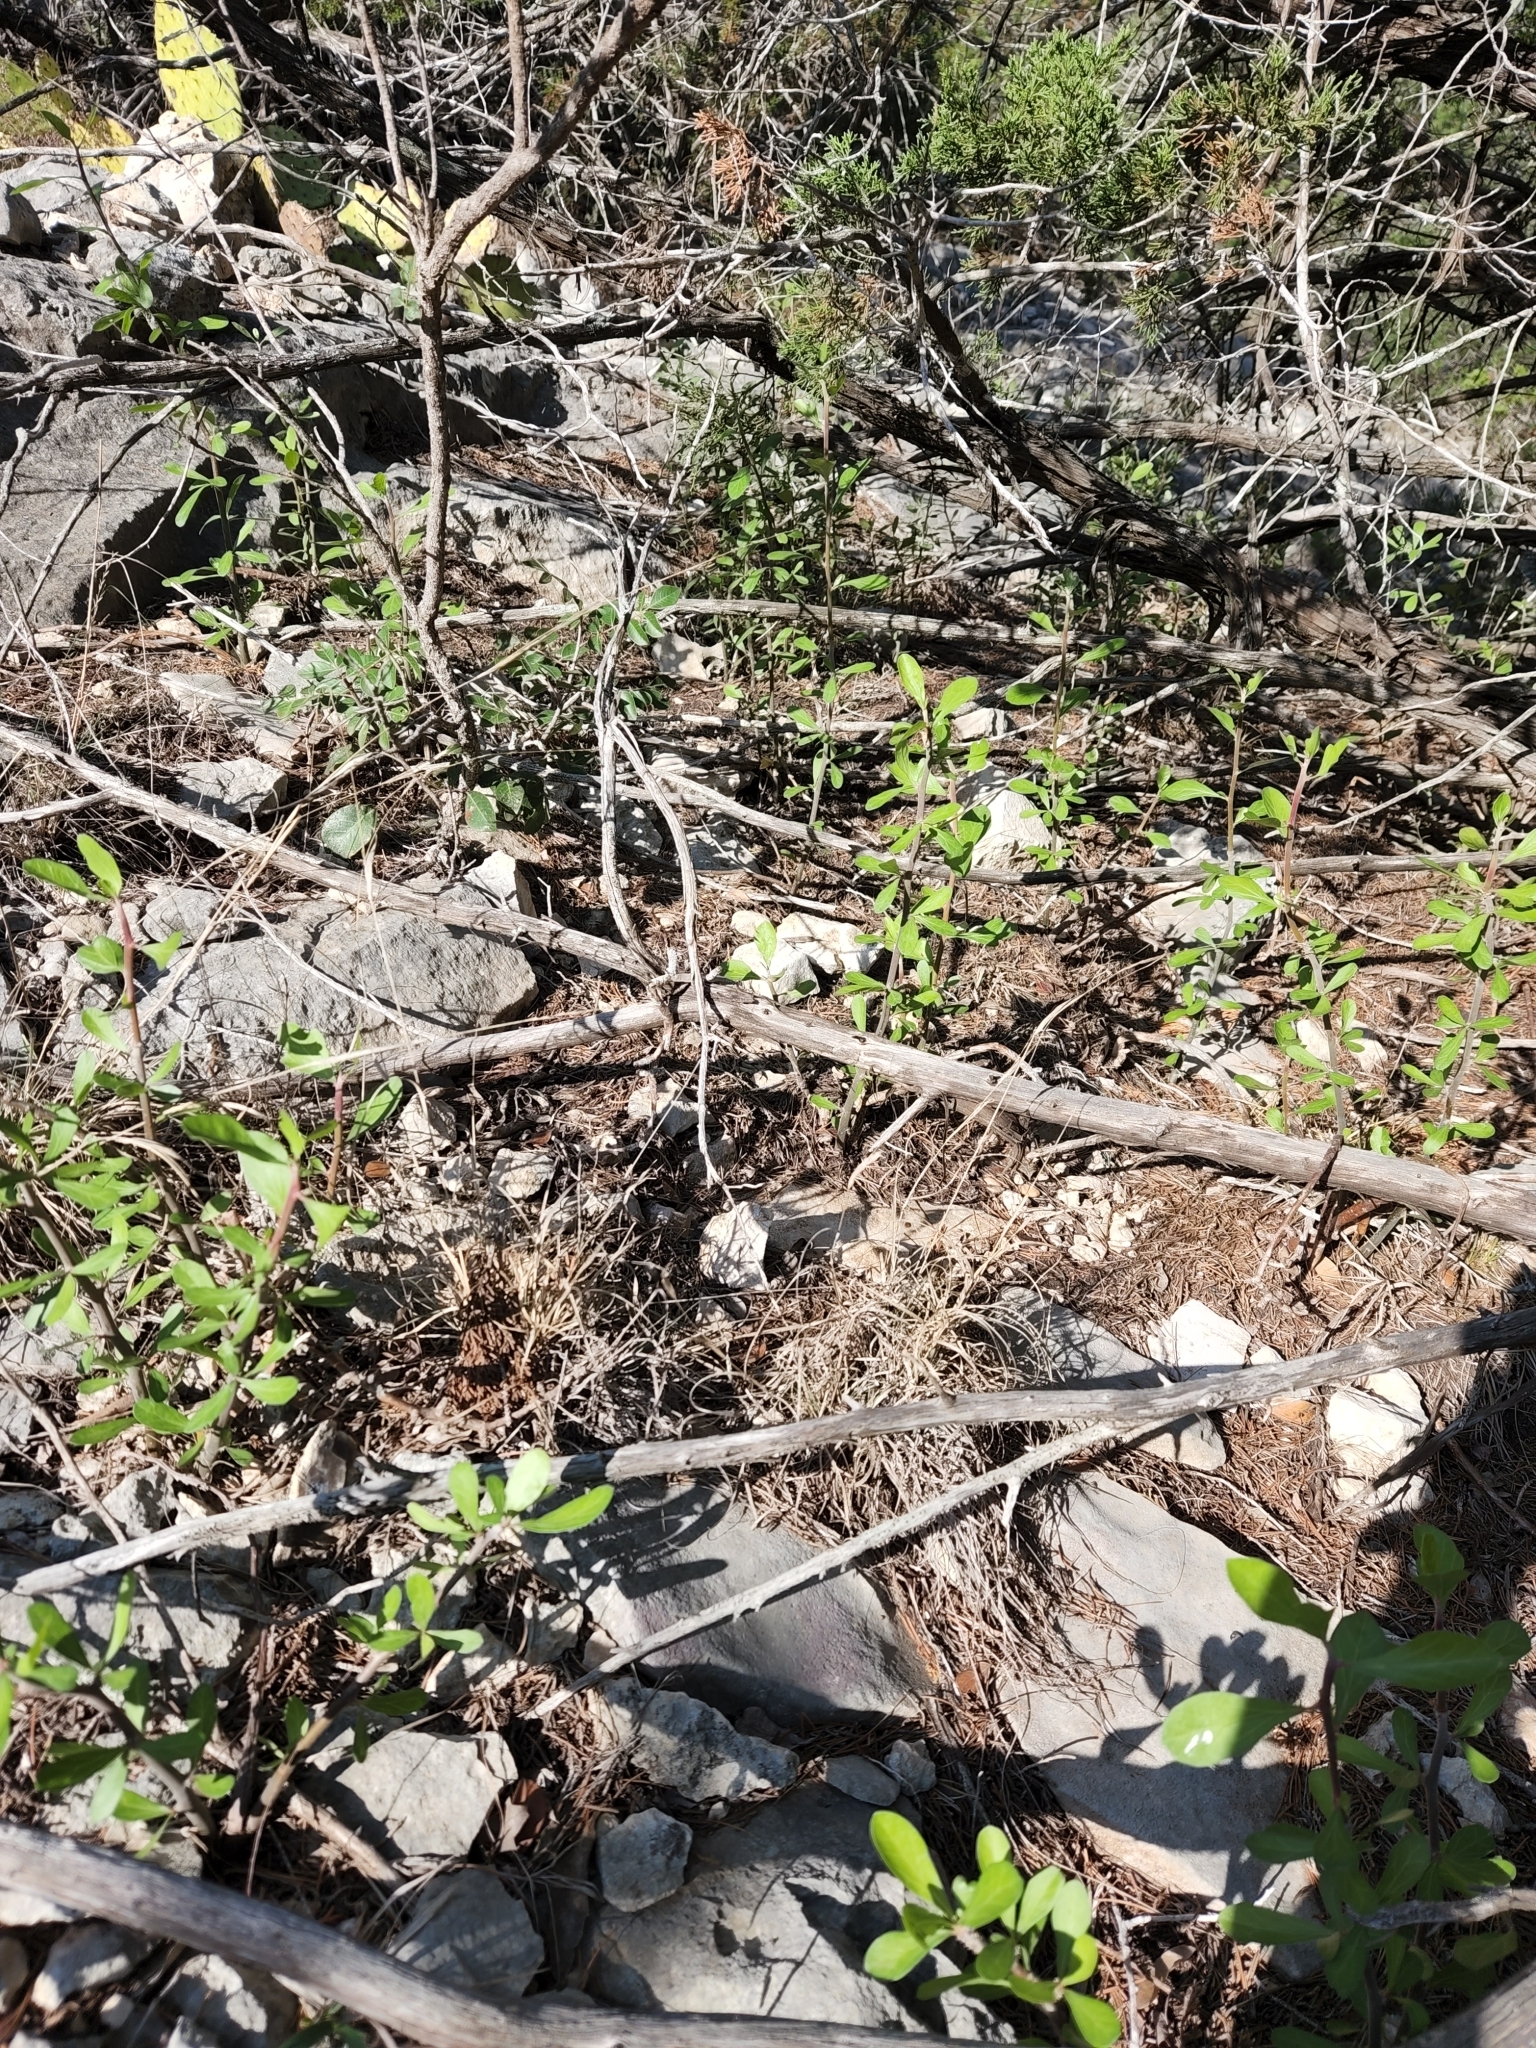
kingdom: Plantae
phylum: Tracheophyta
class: Magnoliopsida
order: Malpighiales
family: Euphorbiaceae
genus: Jatropha
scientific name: Jatropha dioica
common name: Leatherstem
